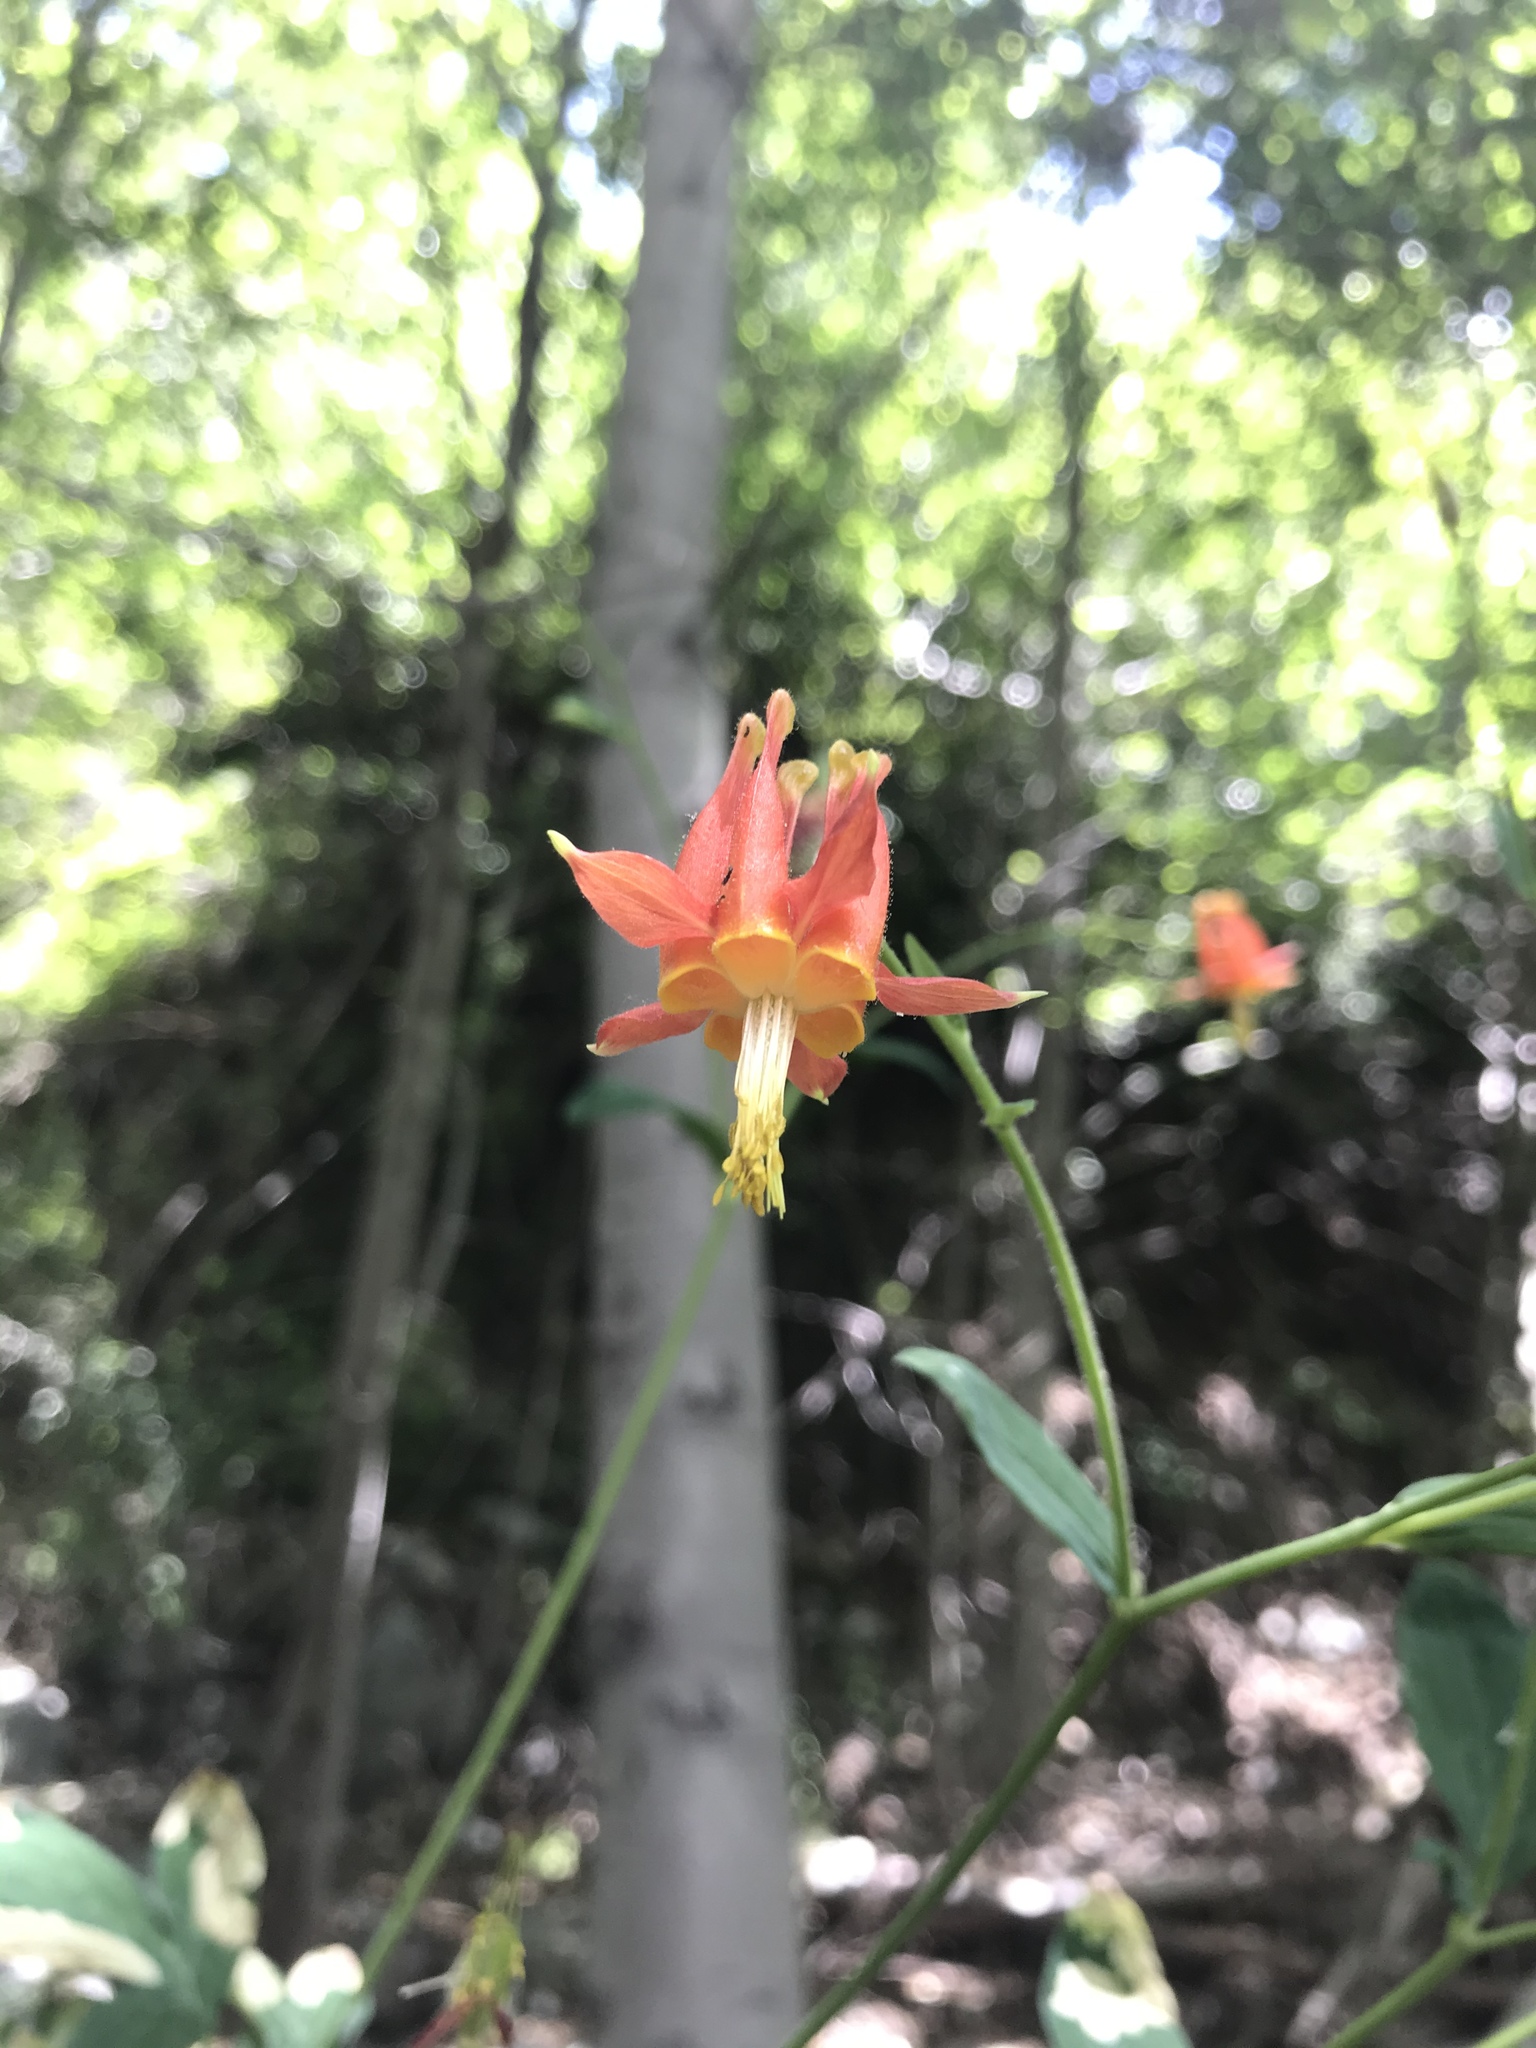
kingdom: Plantae
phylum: Tracheophyta
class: Magnoliopsida
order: Ranunculales
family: Ranunculaceae
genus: Aquilegia
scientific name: Aquilegia formosa
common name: Sitka columbine
